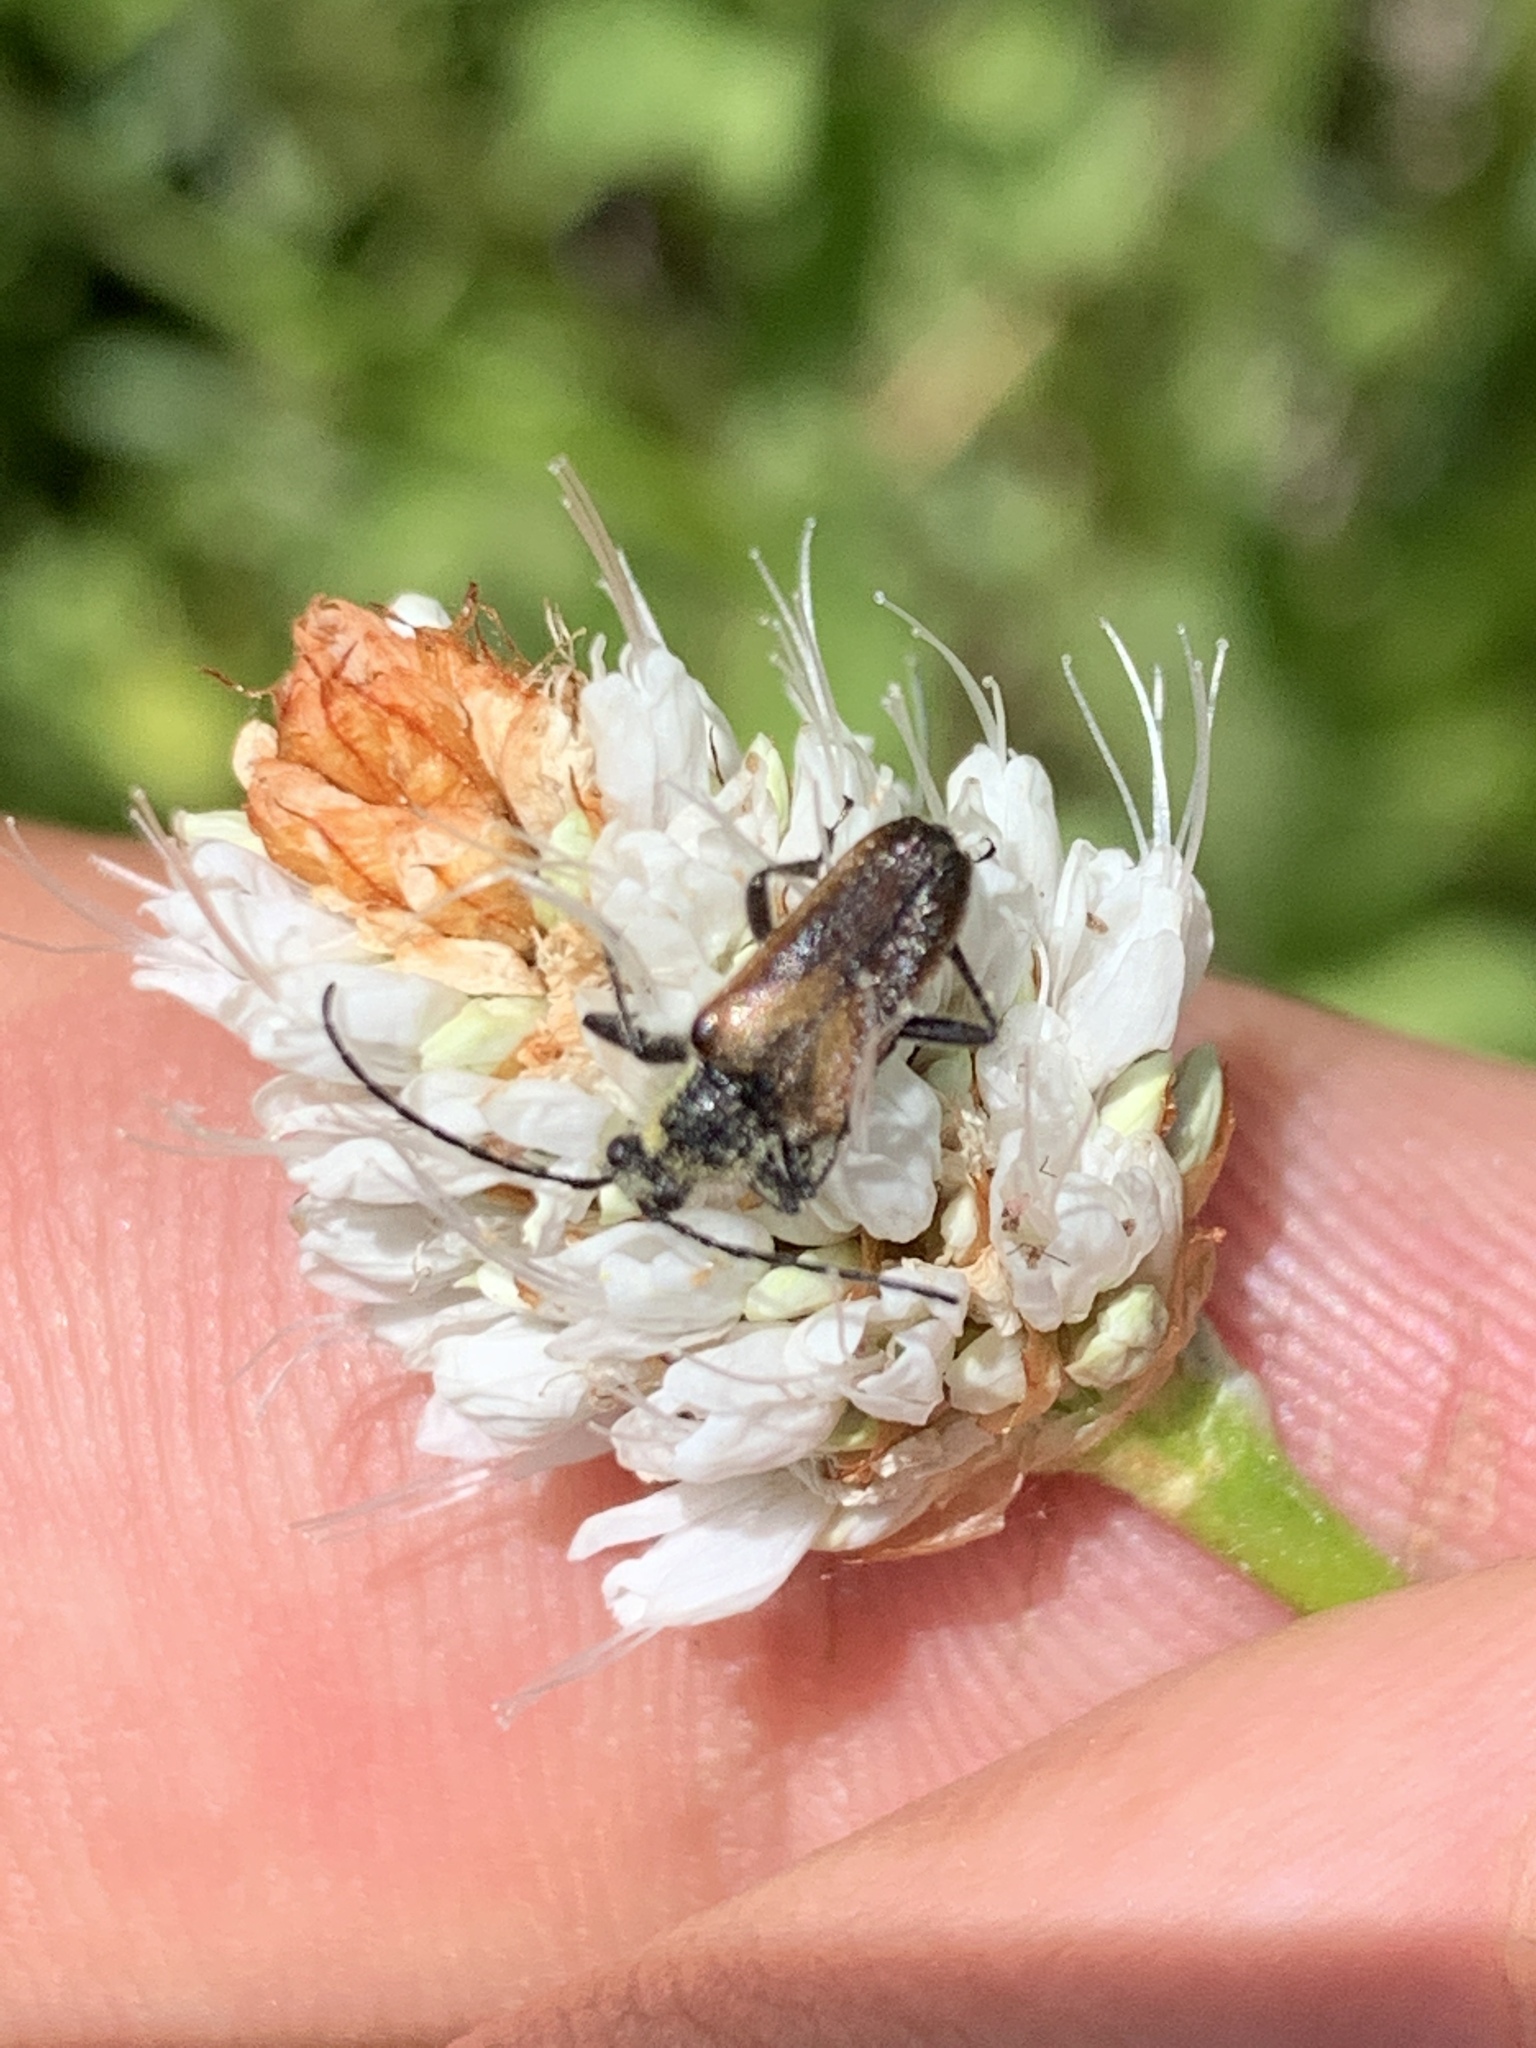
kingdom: Animalia
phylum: Arthropoda
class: Insecta
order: Coleoptera
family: Cerambycidae
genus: Gnathacmaeops
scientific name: Gnathacmaeops pratensis
